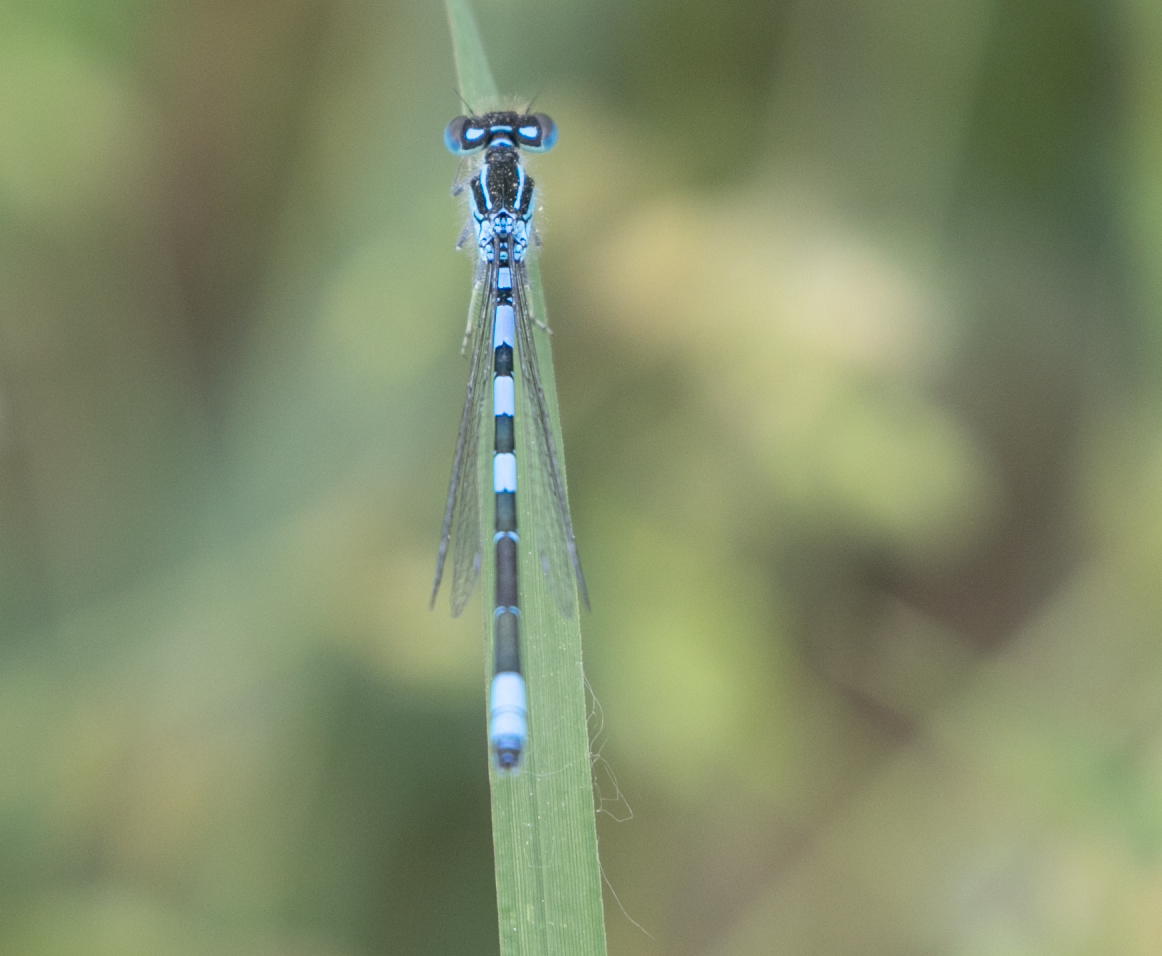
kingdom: Animalia
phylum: Arthropoda
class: Insecta
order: Odonata
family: Coenagrionidae
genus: Coenagrion
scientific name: Coenagrion scitulum
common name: Dainty bluet
